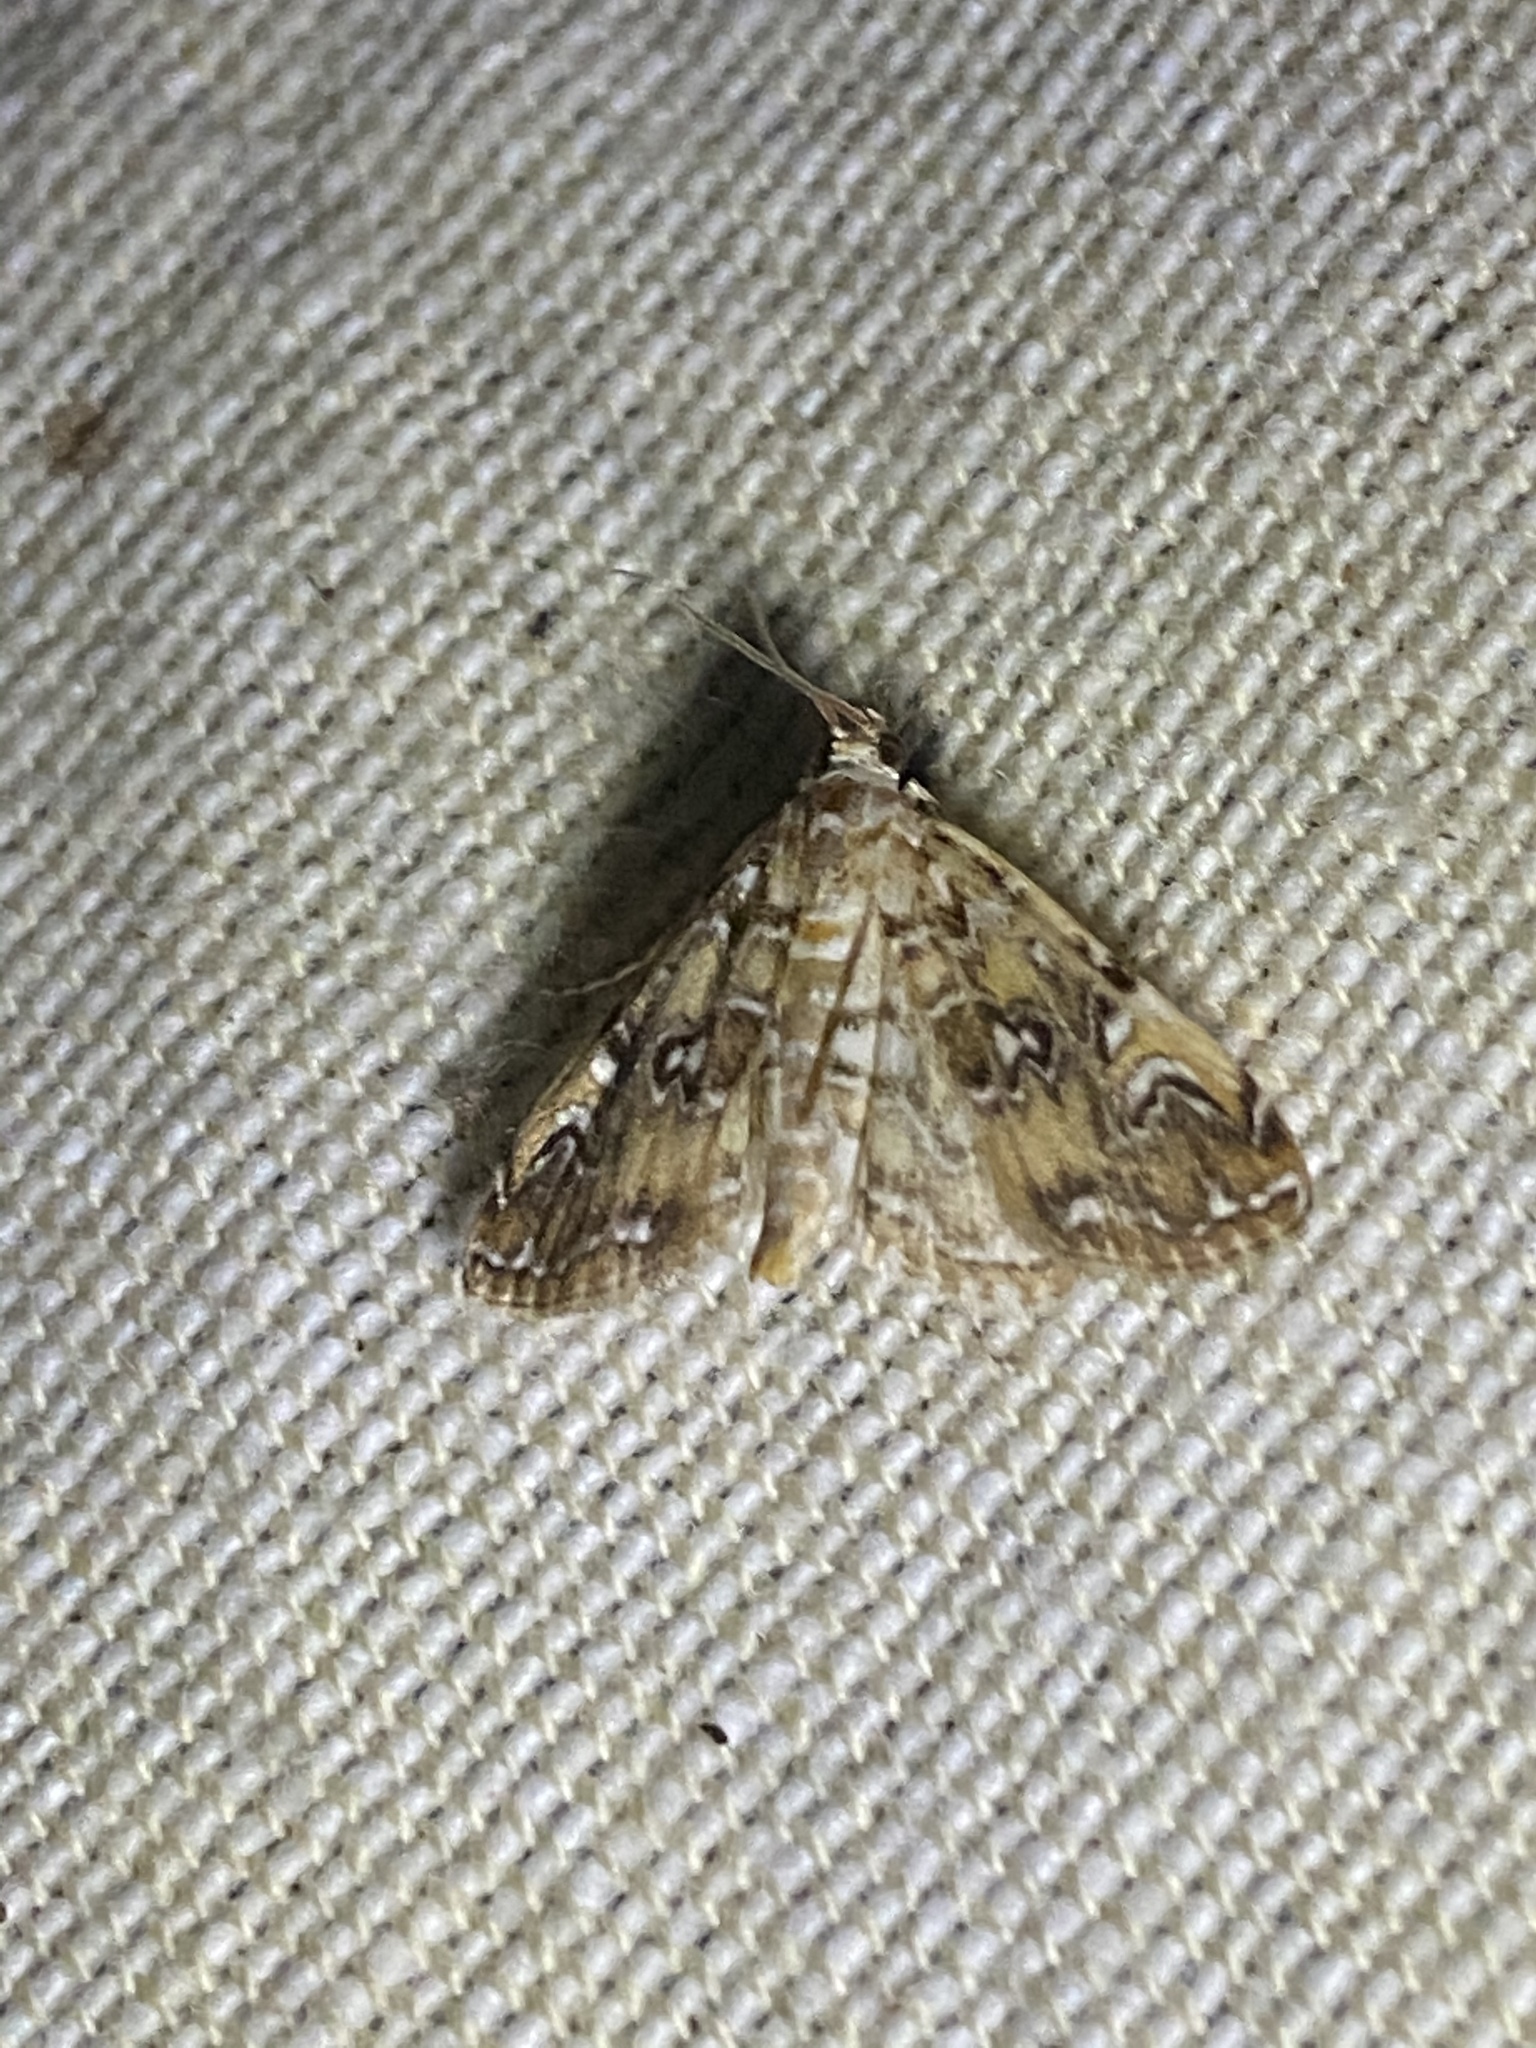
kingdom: Animalia
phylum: Arthropoda
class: Insecta
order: Lepidoptera
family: Crambidae
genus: Elophila
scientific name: Elophila gyralis
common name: Waterlily borer moth
